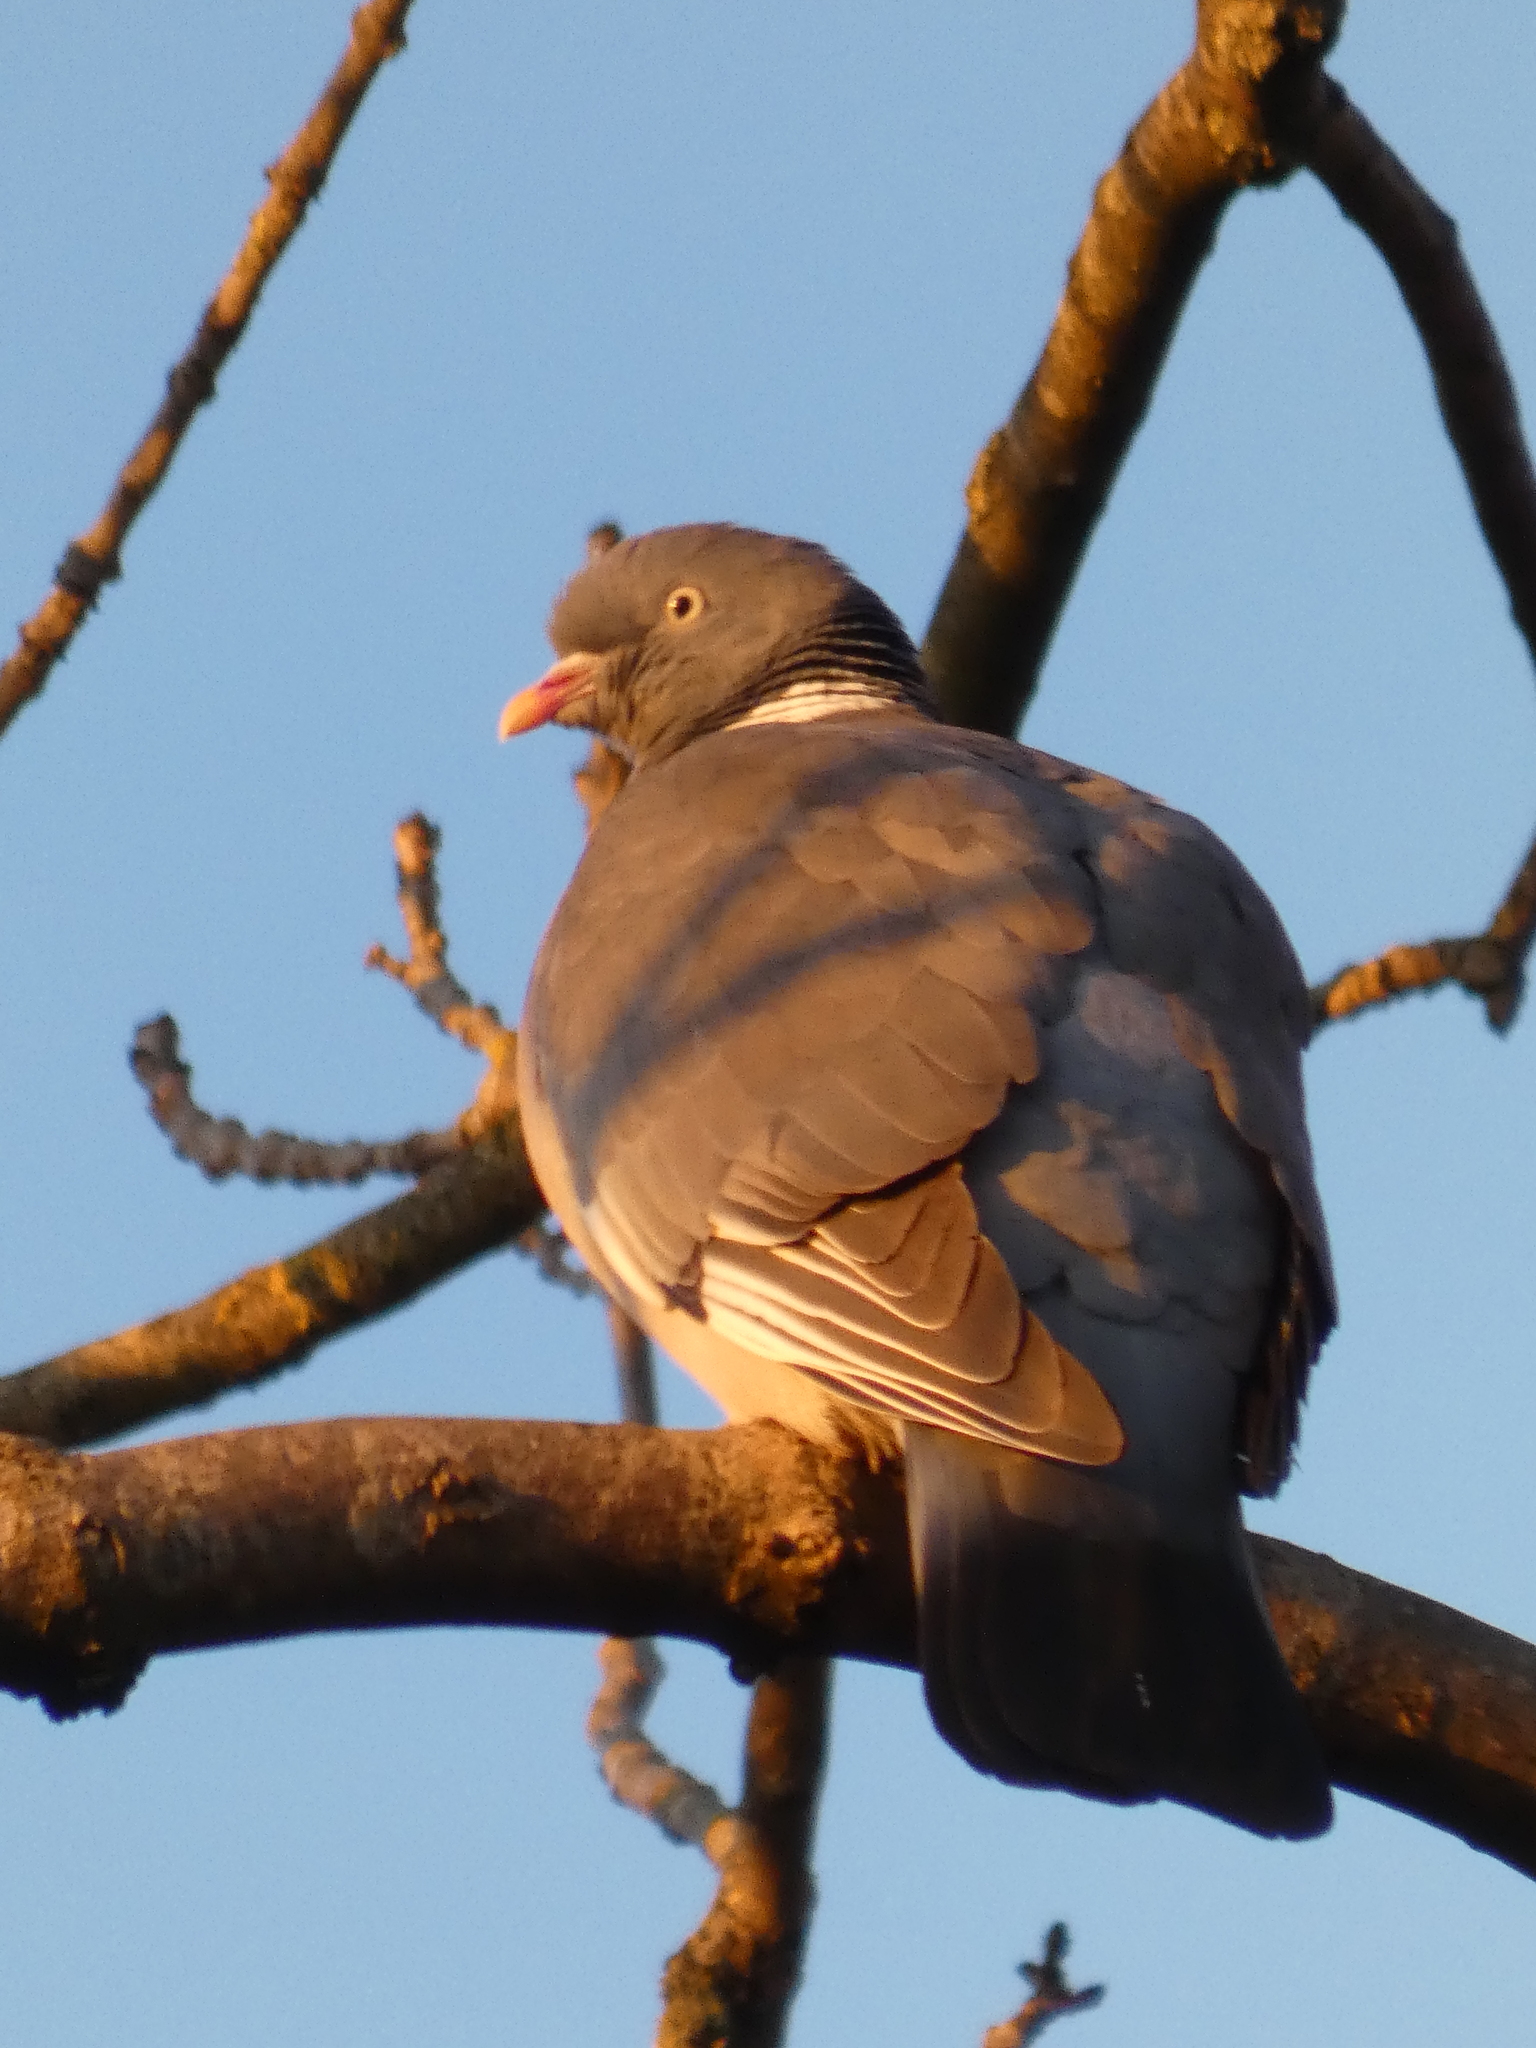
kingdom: Animalia
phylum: Chordata
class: Aves
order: Columbiformes
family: Columbidae
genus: Columba
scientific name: Columba palumbus
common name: Common wood pigeon
